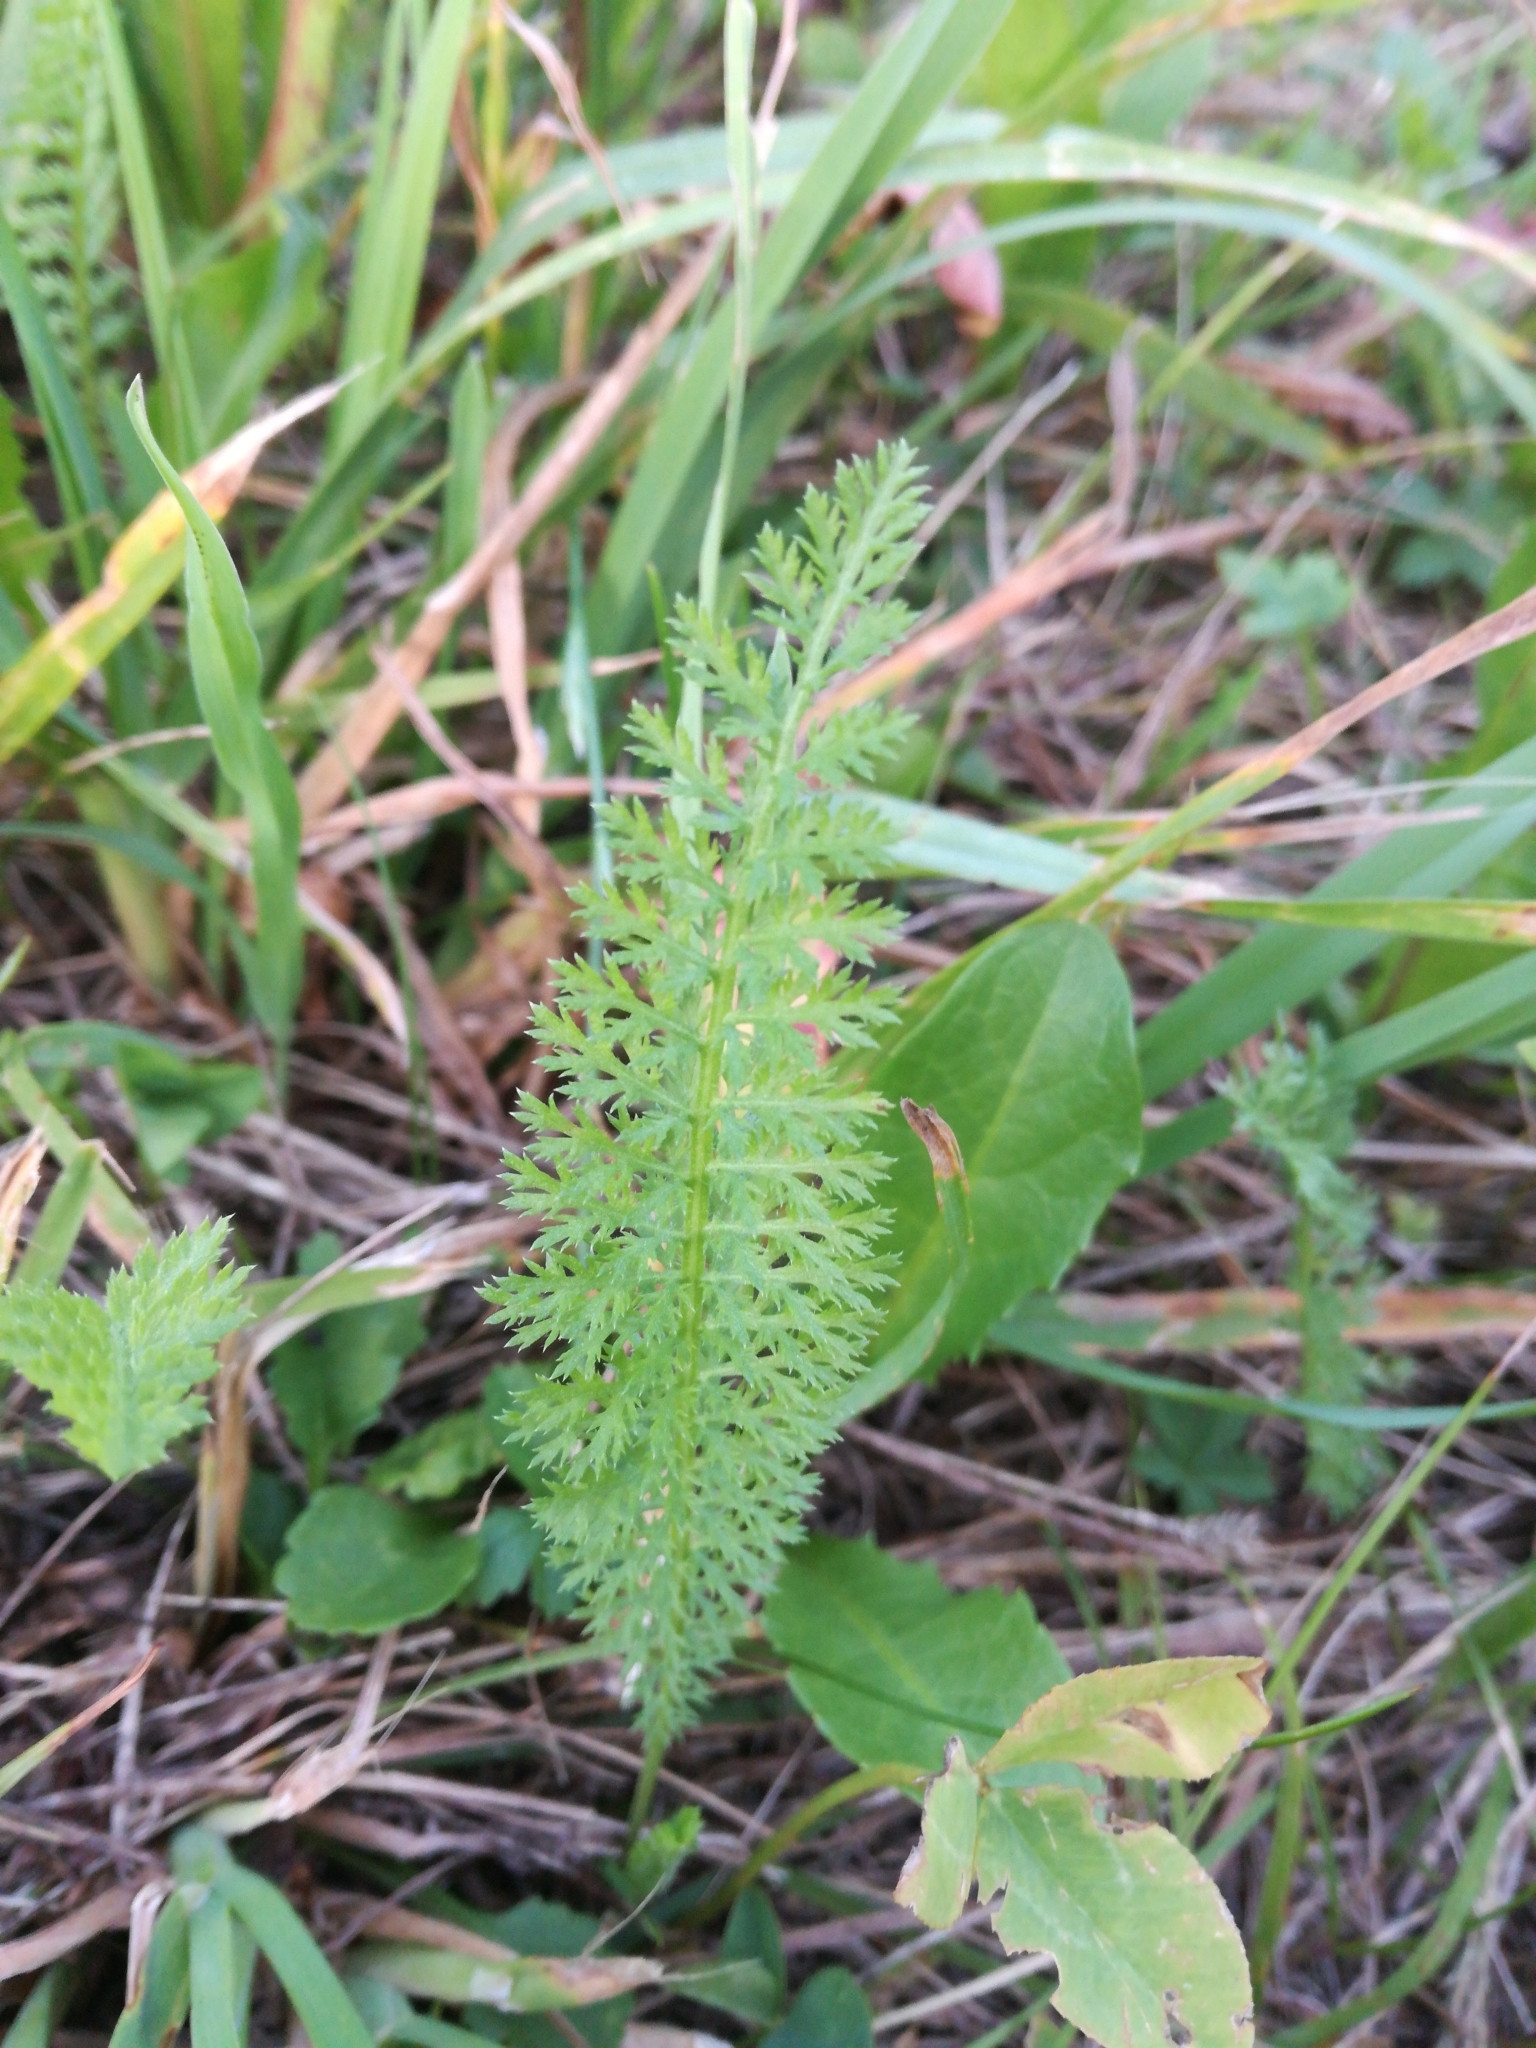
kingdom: Plantae
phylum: Tracheophyta
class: Magnoliopsida
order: Asterales
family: Asteraceae
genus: Achillea
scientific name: Achillea millefolium
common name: Yarrow
